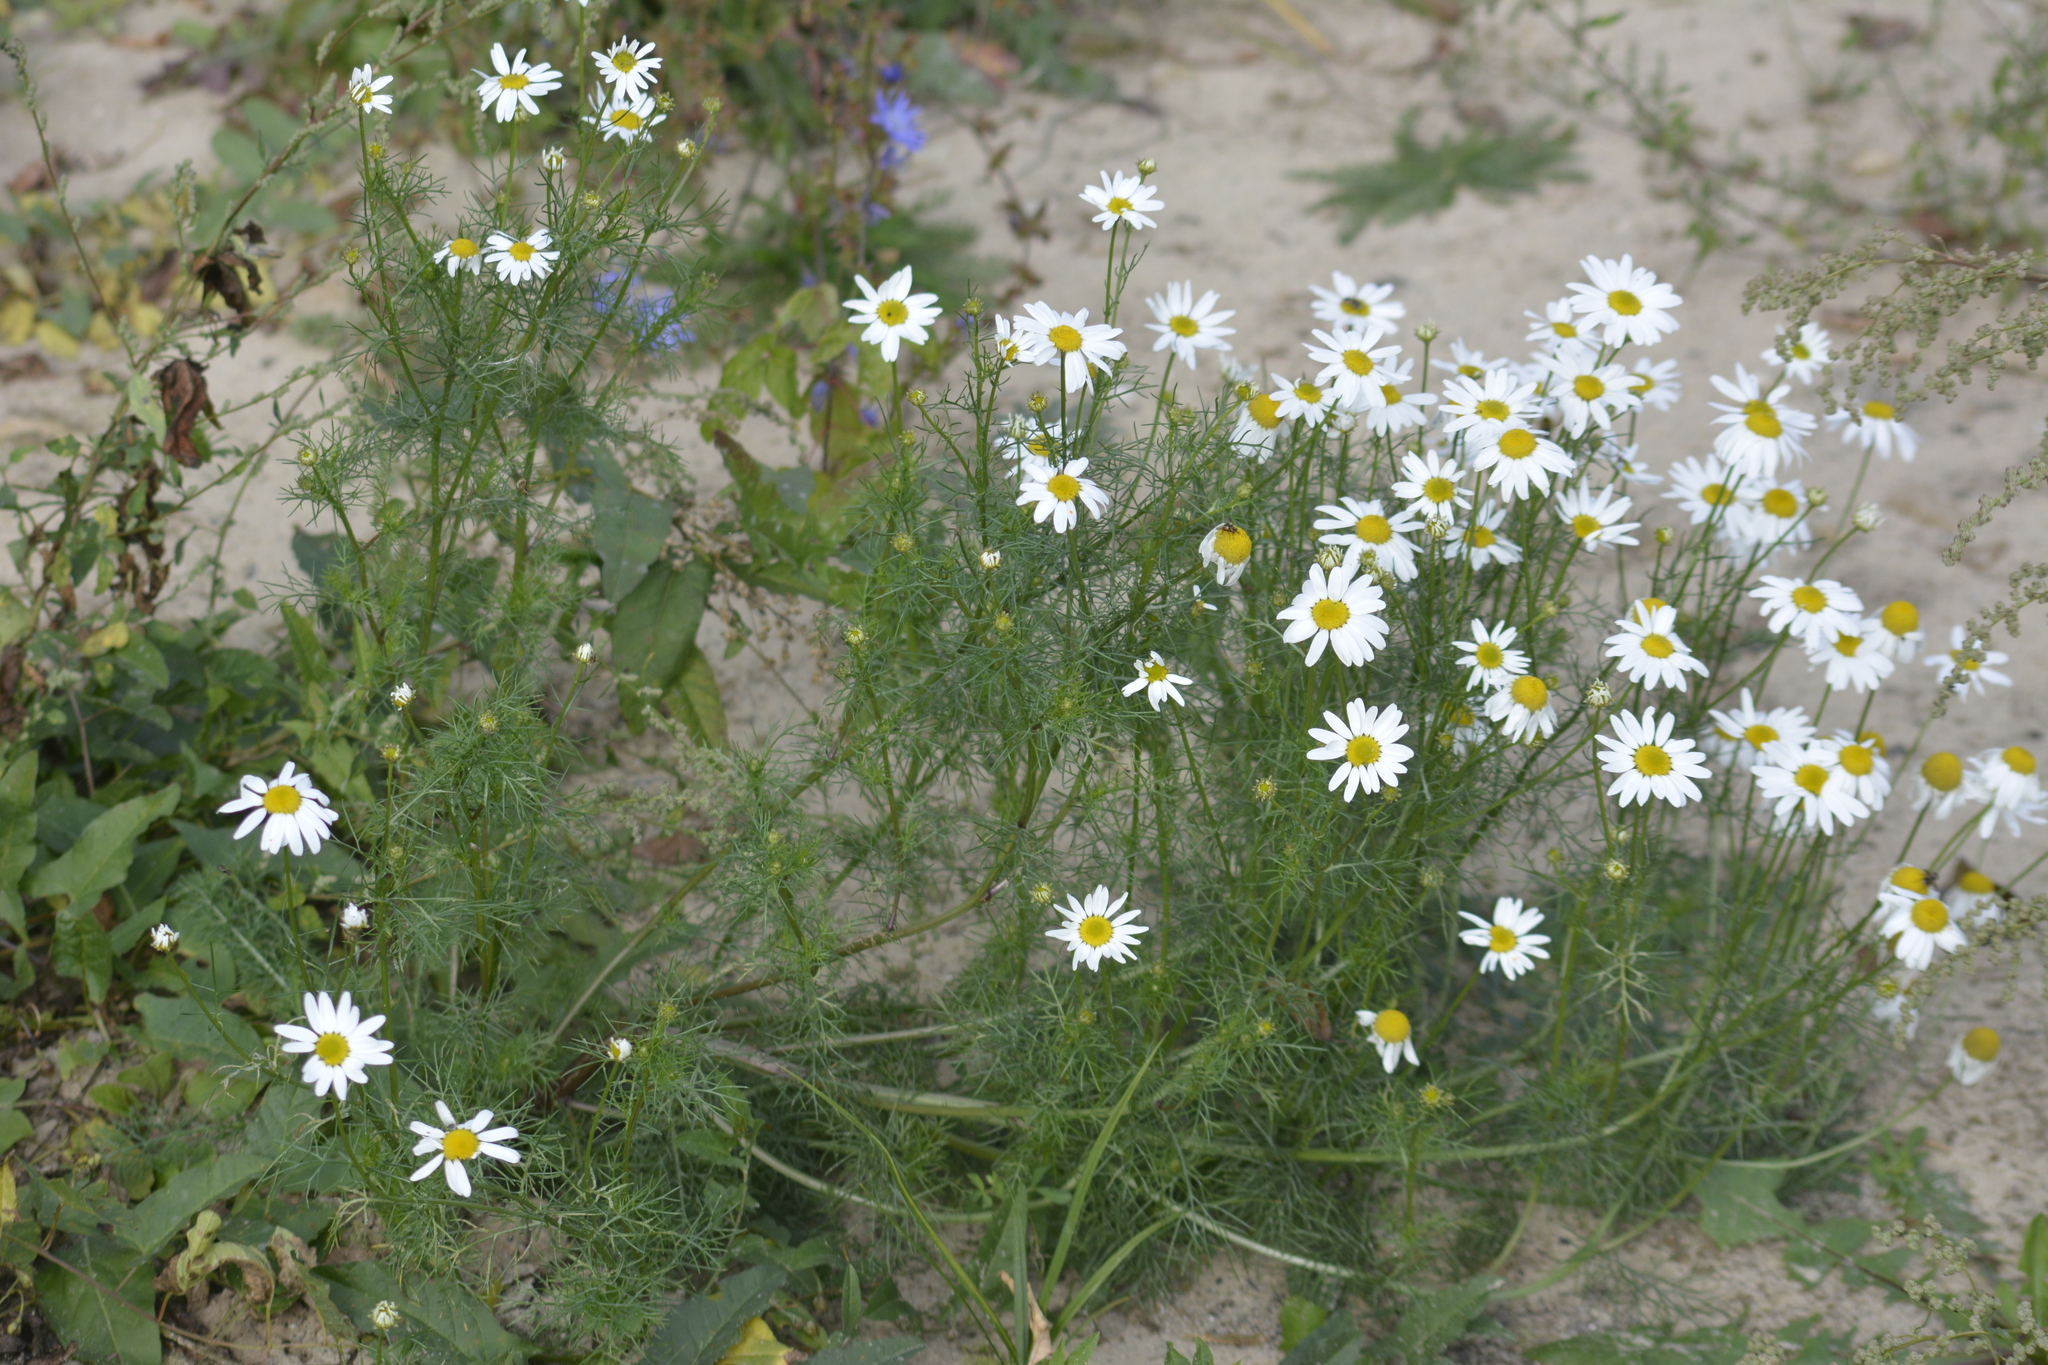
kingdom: Plantae
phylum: Tracheophyta
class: Magnoliopsida
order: Asterales
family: Asteraceae
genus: Tripleurospermum
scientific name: Tripleurospermum inodorum
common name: Scentless mayweed
